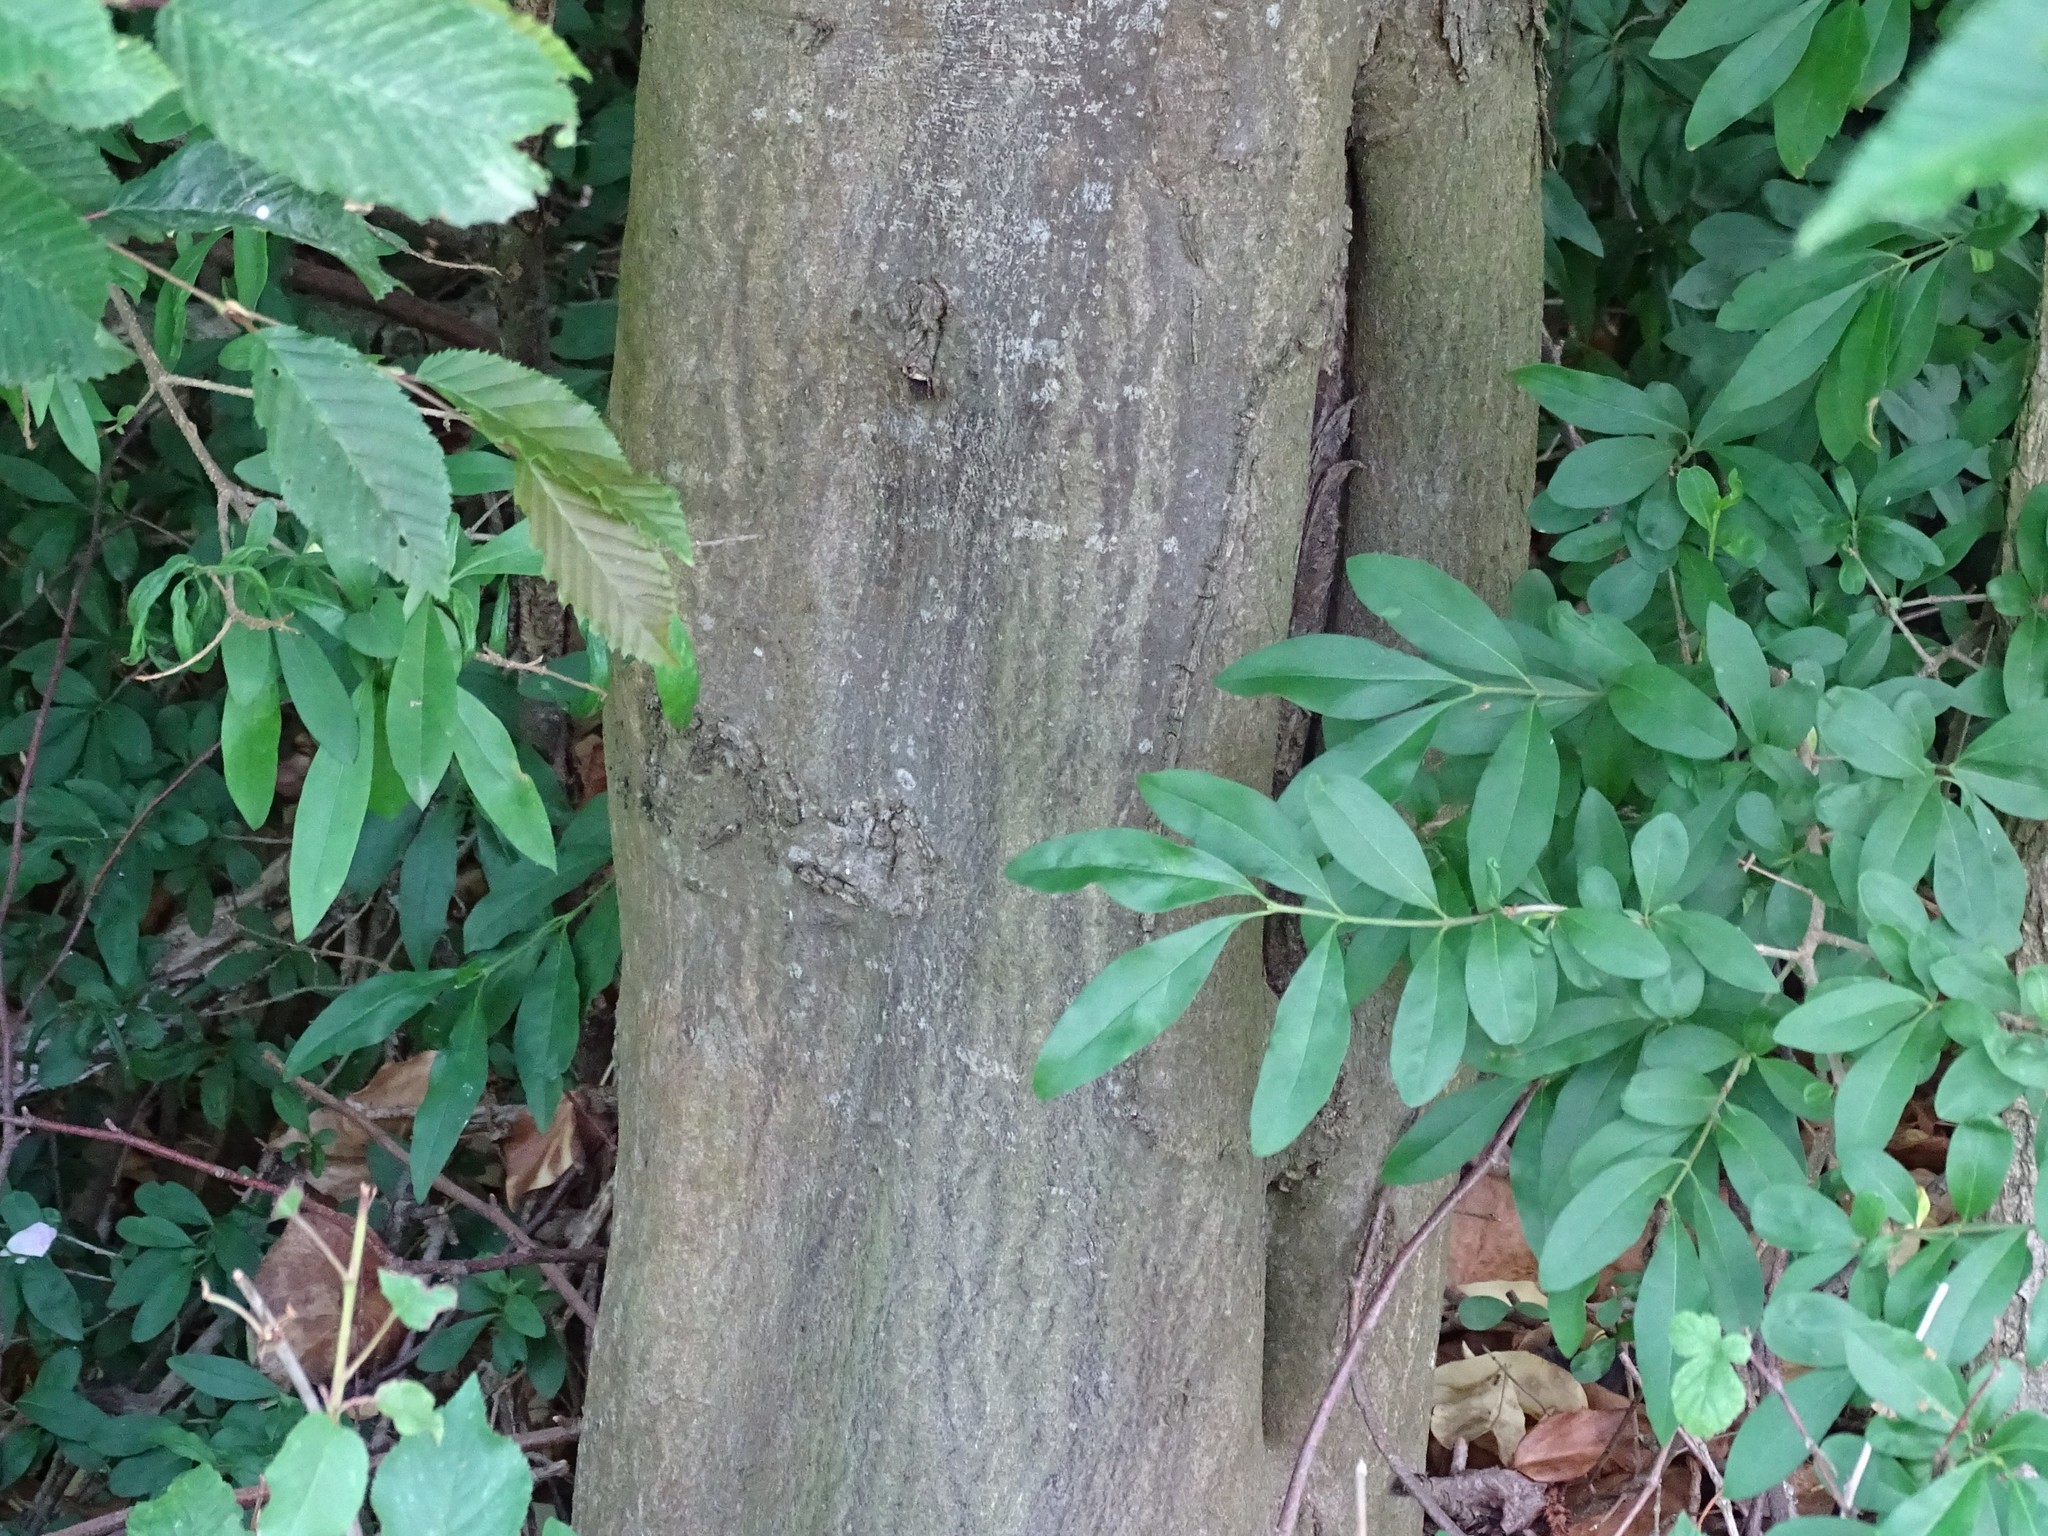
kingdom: Plantae
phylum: Tracheophyta
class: Magnoliopsida
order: Fagales
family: Betulaceae
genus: Carpinus
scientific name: Carpinus betulus
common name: Hornbeam
